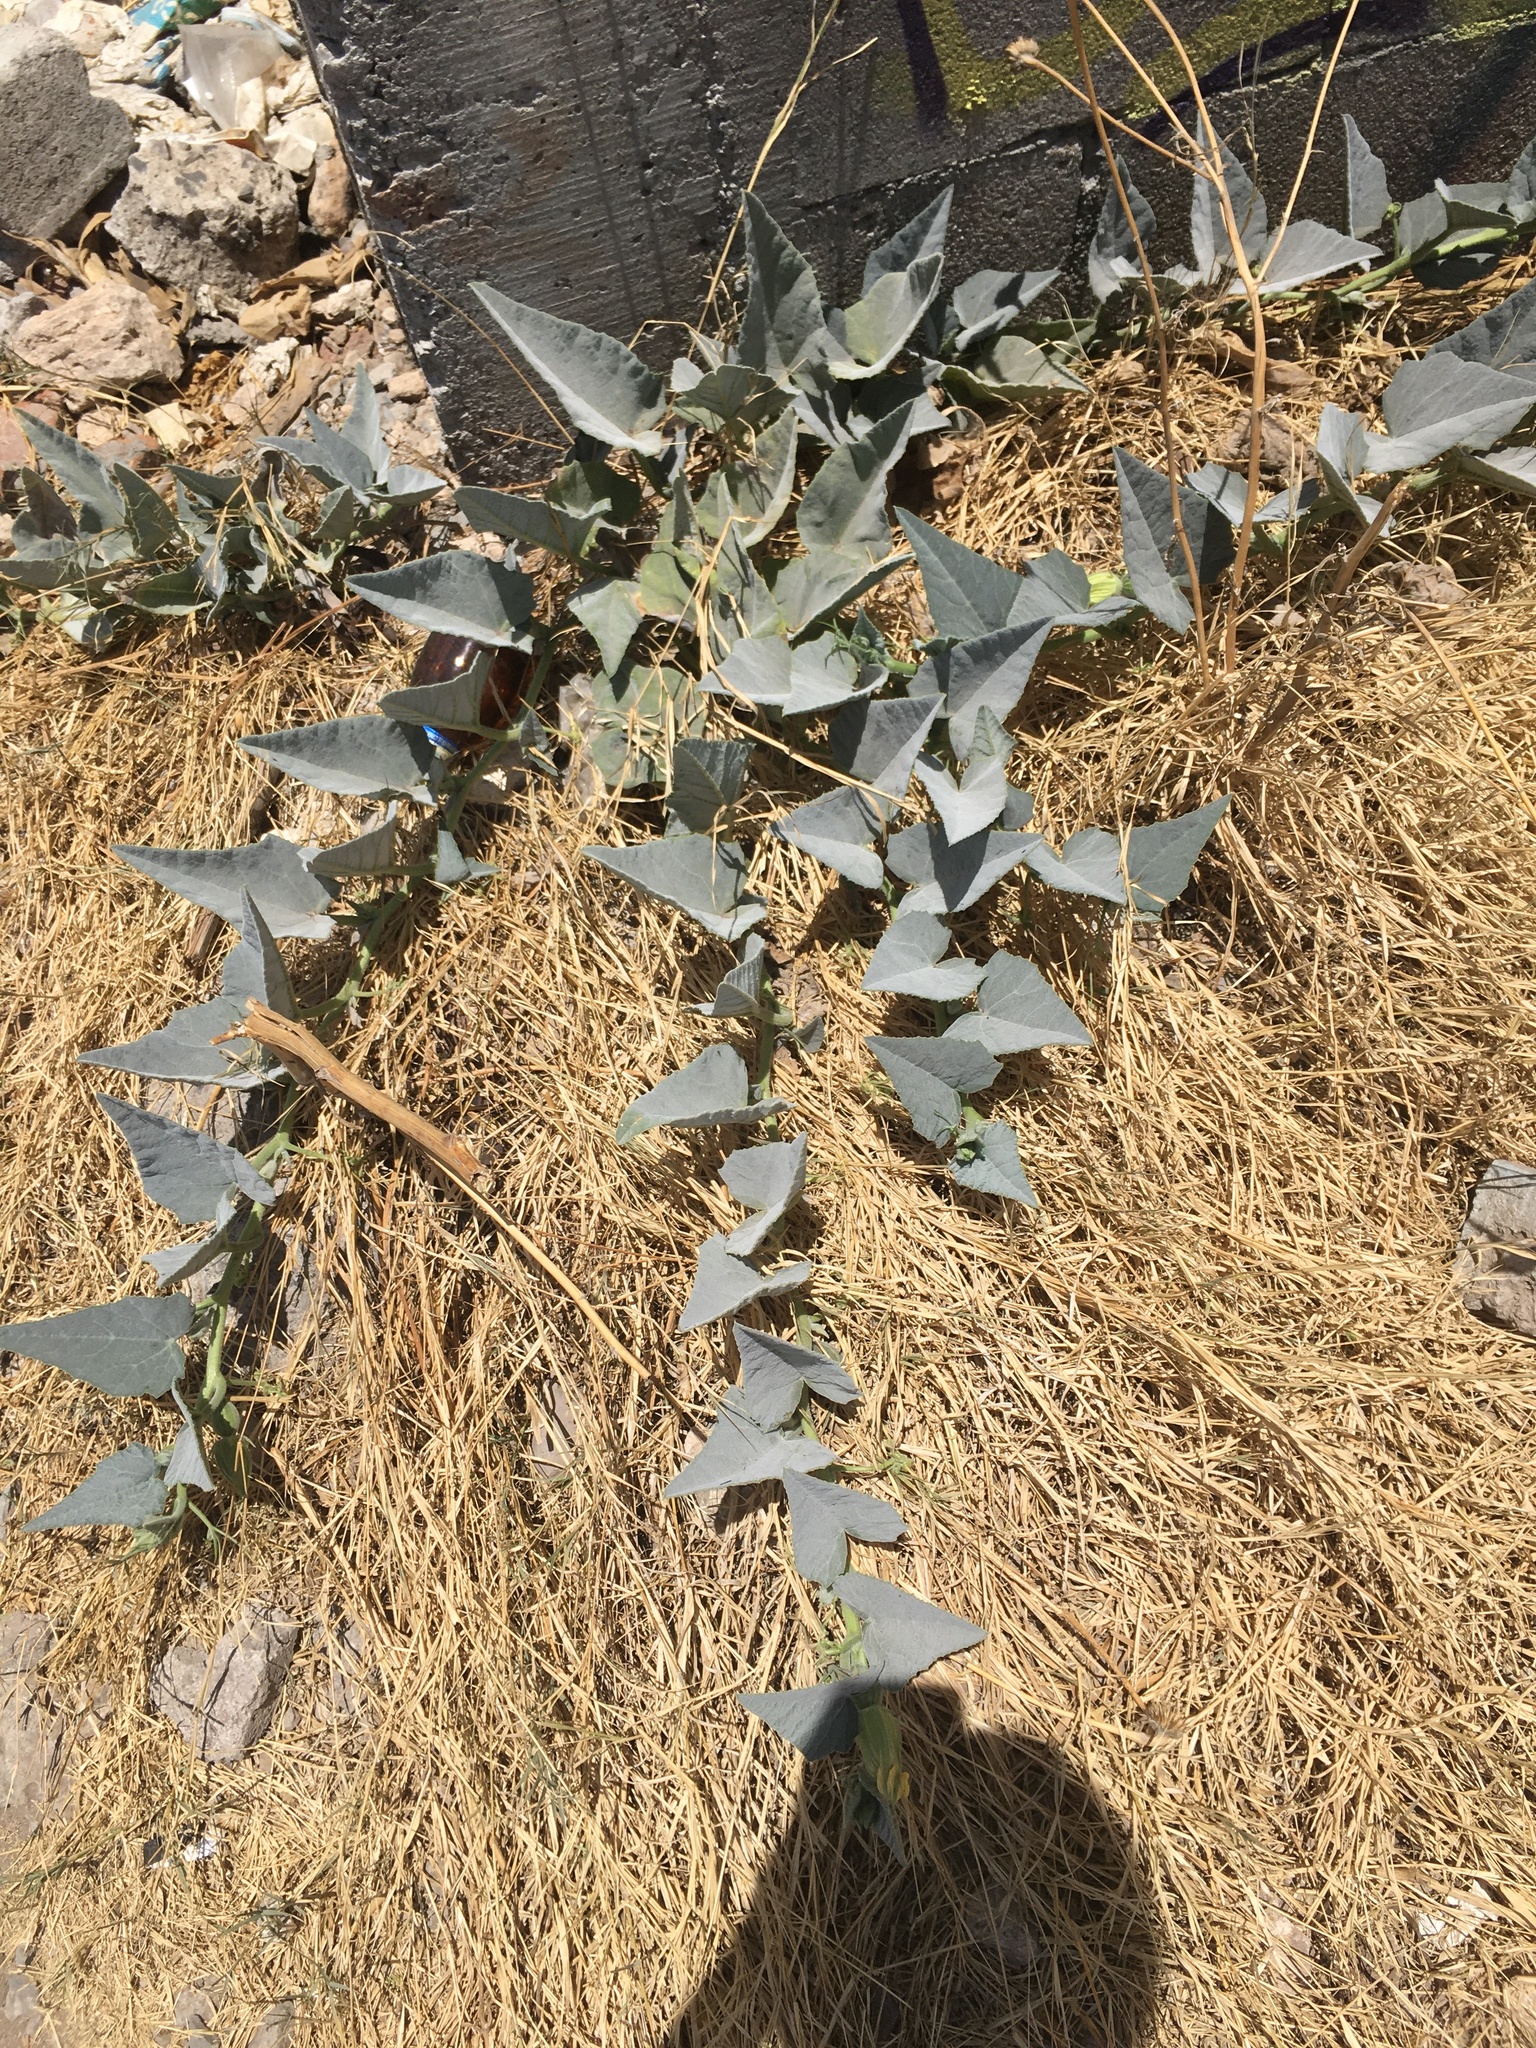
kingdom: Plantae
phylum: Tracheophyta
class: Magnoliopsida
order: Cucurbitales
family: Cucurbitaceae
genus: Cucurbita
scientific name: Cucurbita foetidissima
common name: Buffalo gourd
